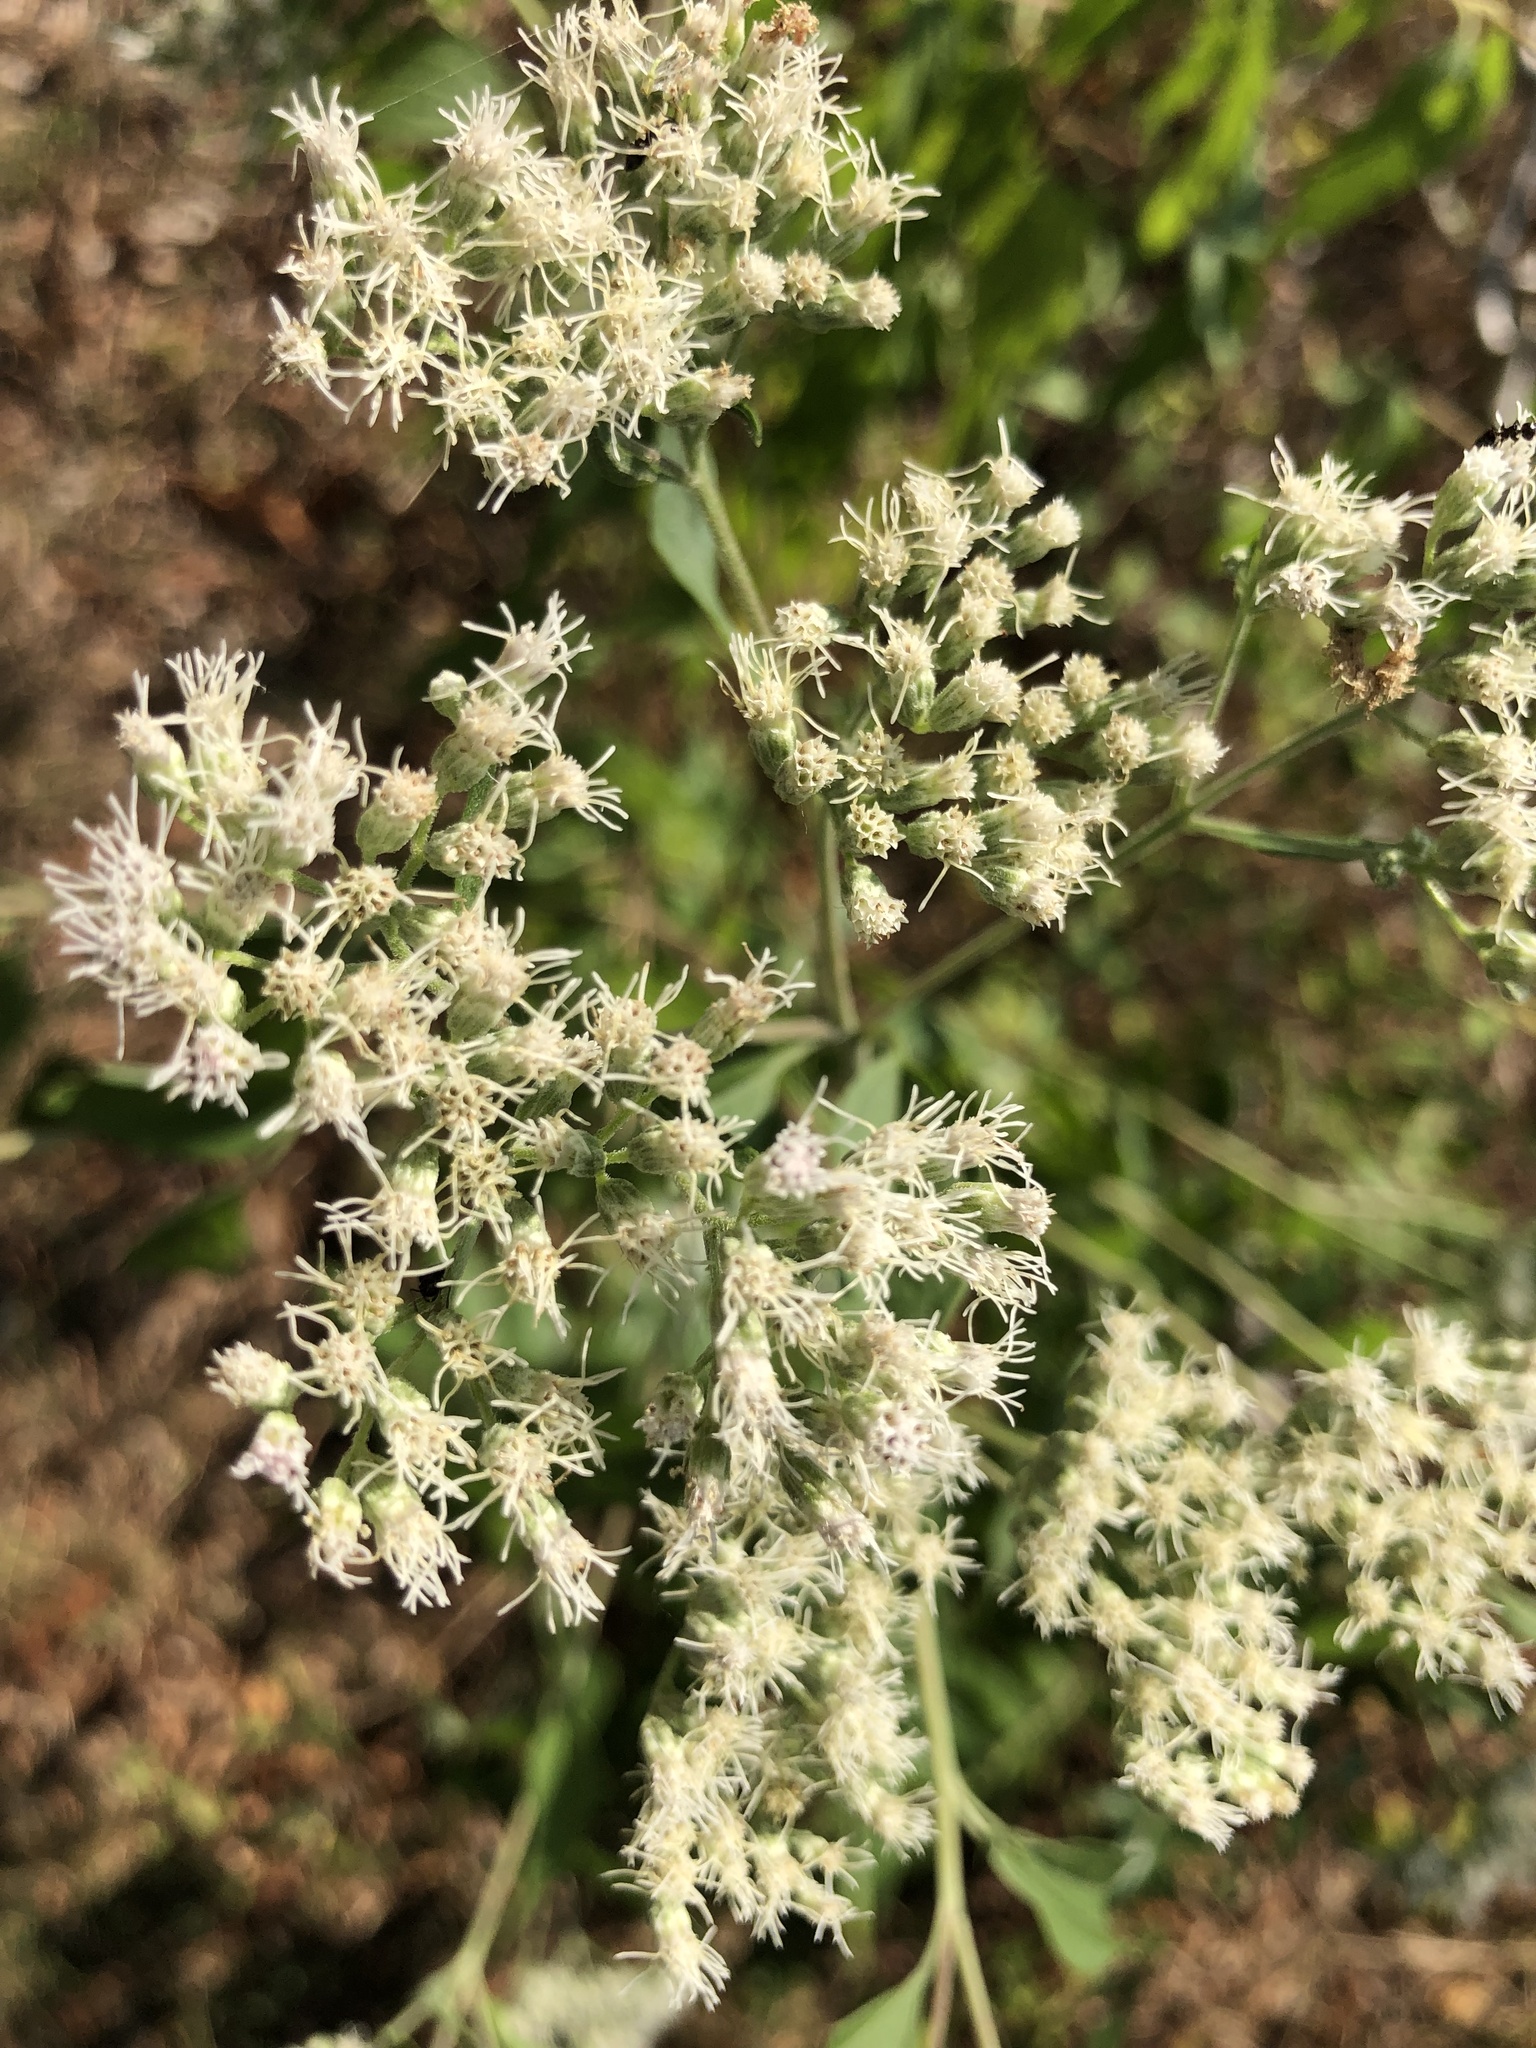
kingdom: Plantae
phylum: Tracheophyta
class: Magnoliopsida
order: Asterales
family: Asteraceae
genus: Eupatorium
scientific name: Eupatorium serotinum
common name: Late boneset
